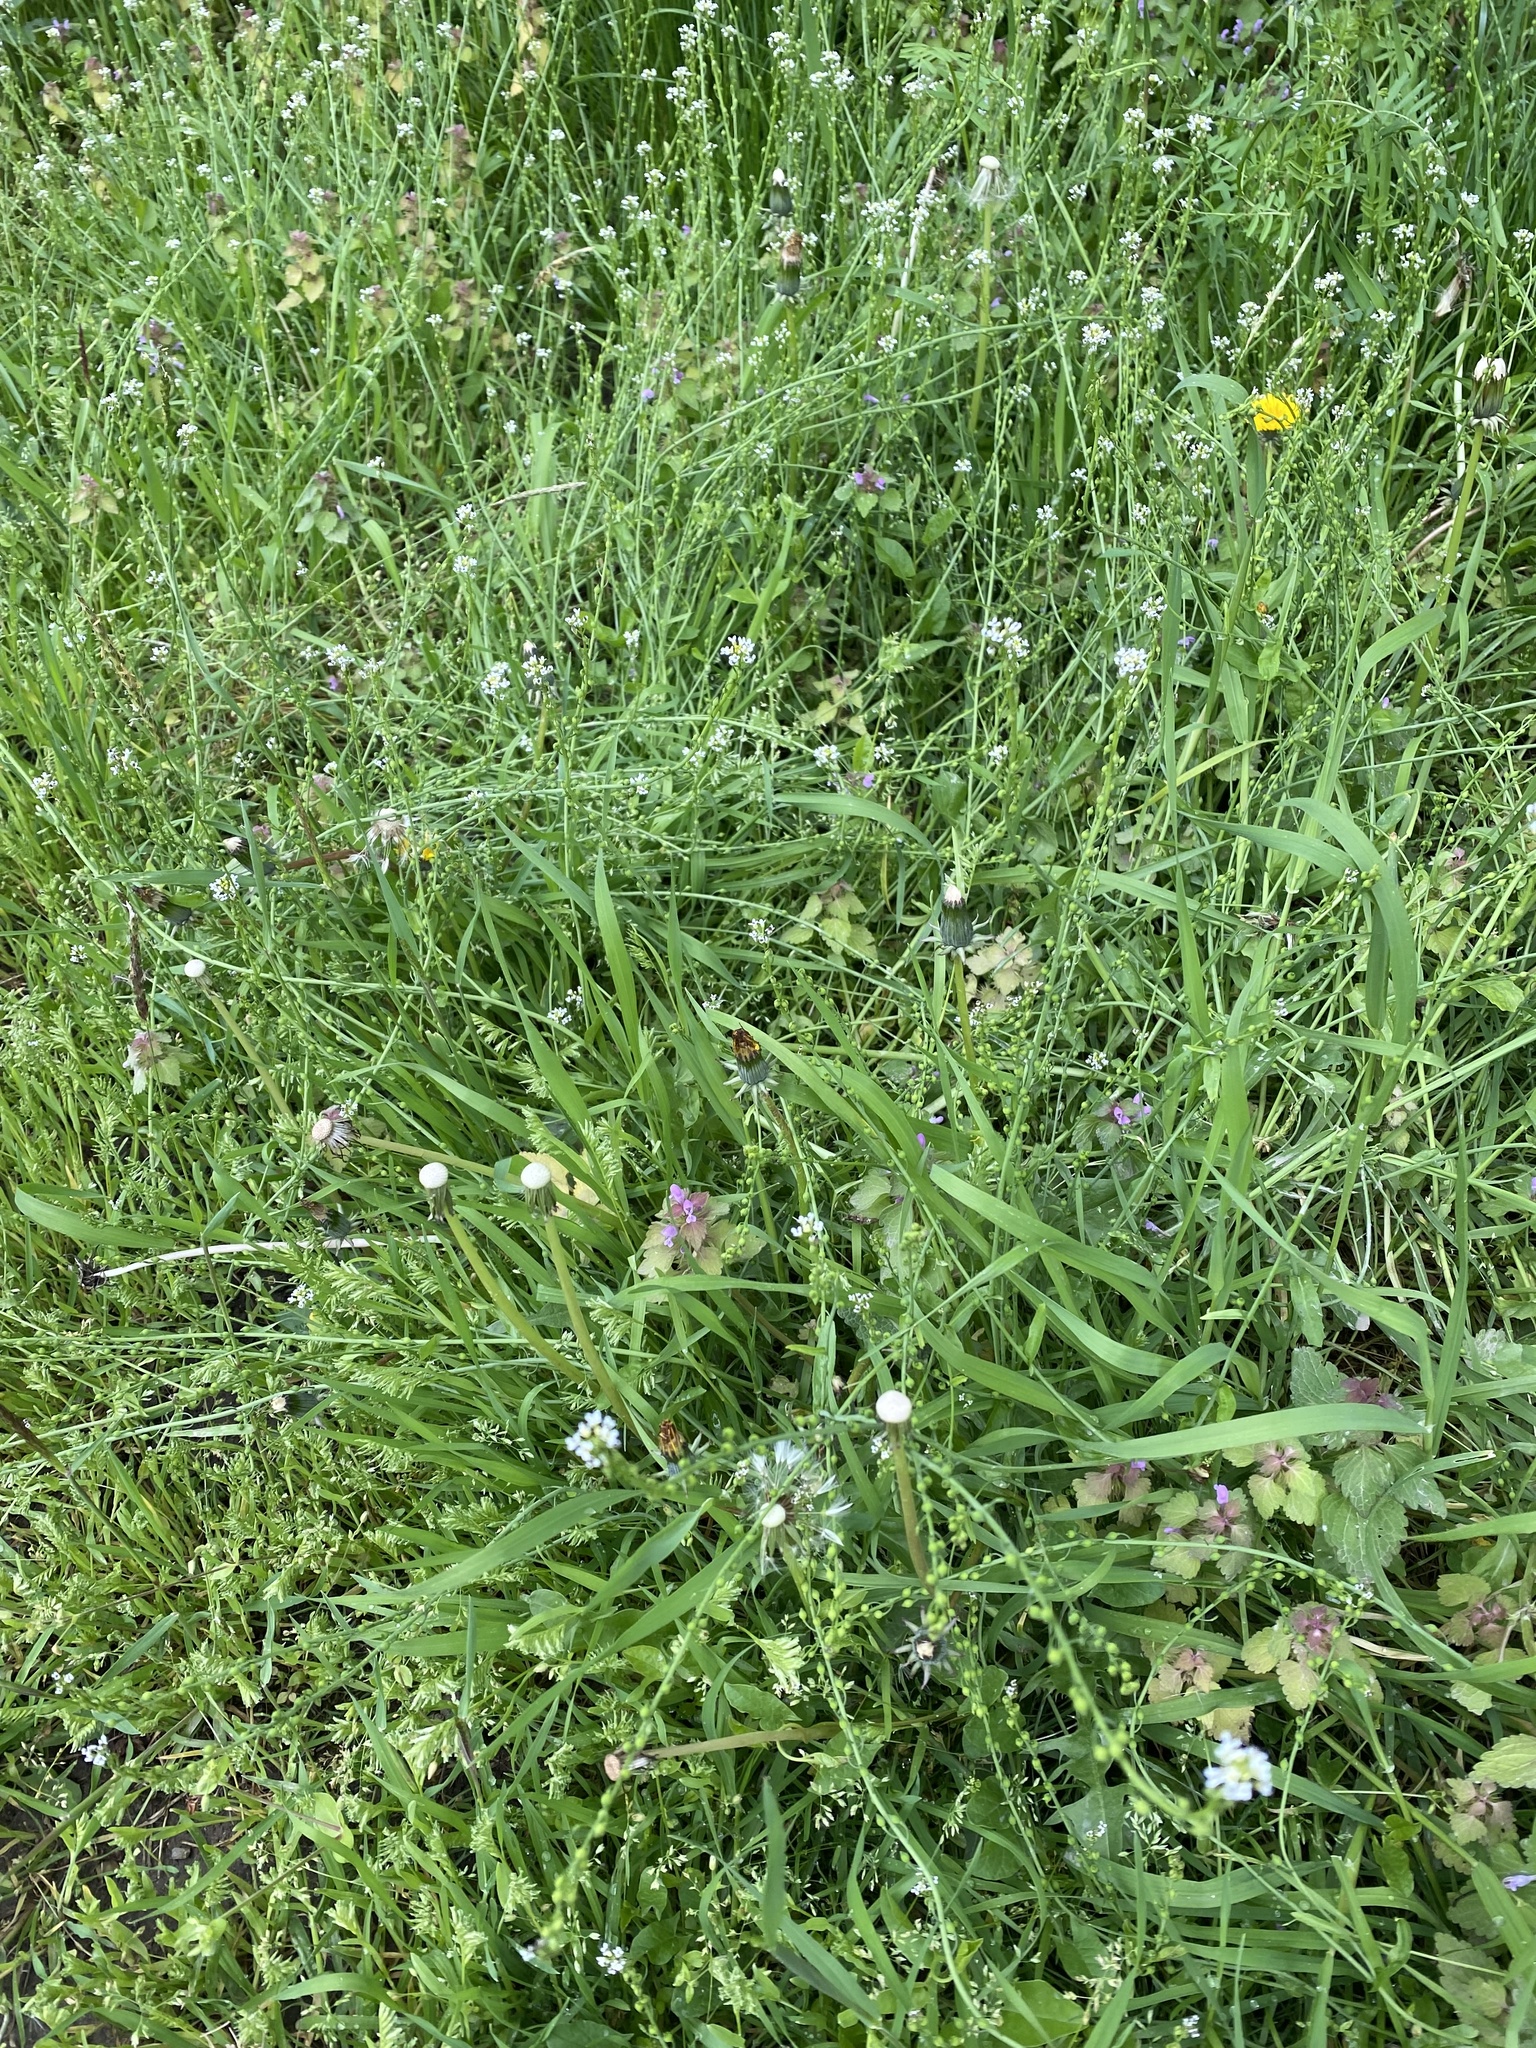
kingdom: Plantae
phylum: Tracheophyta
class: Magnoliopsida
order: Brassicales
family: Brassicaceae
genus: Calepina
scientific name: Calepina irregularis
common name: White ballmustard
